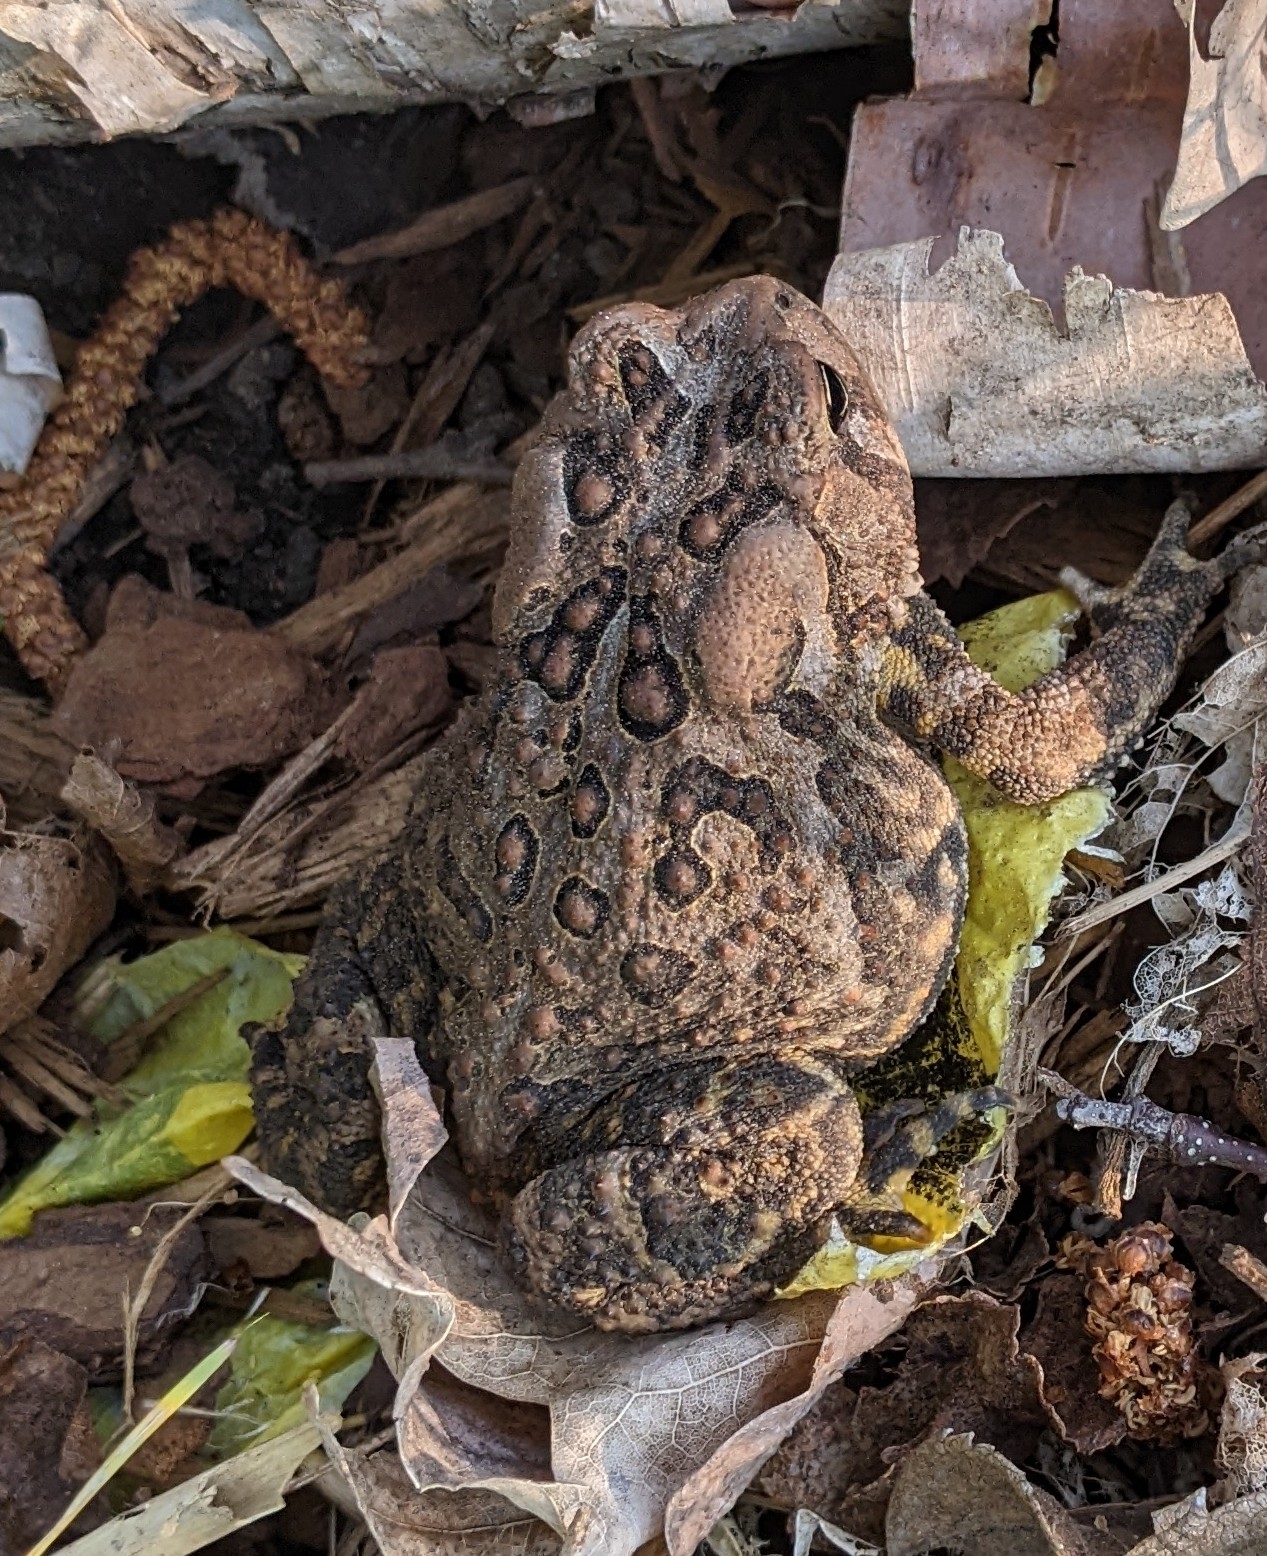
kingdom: Animalia
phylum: Chordata
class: Amphibia
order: Anura
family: Bufonidae
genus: Anaxyrus
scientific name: Anaxyrus americanus
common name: American toad
